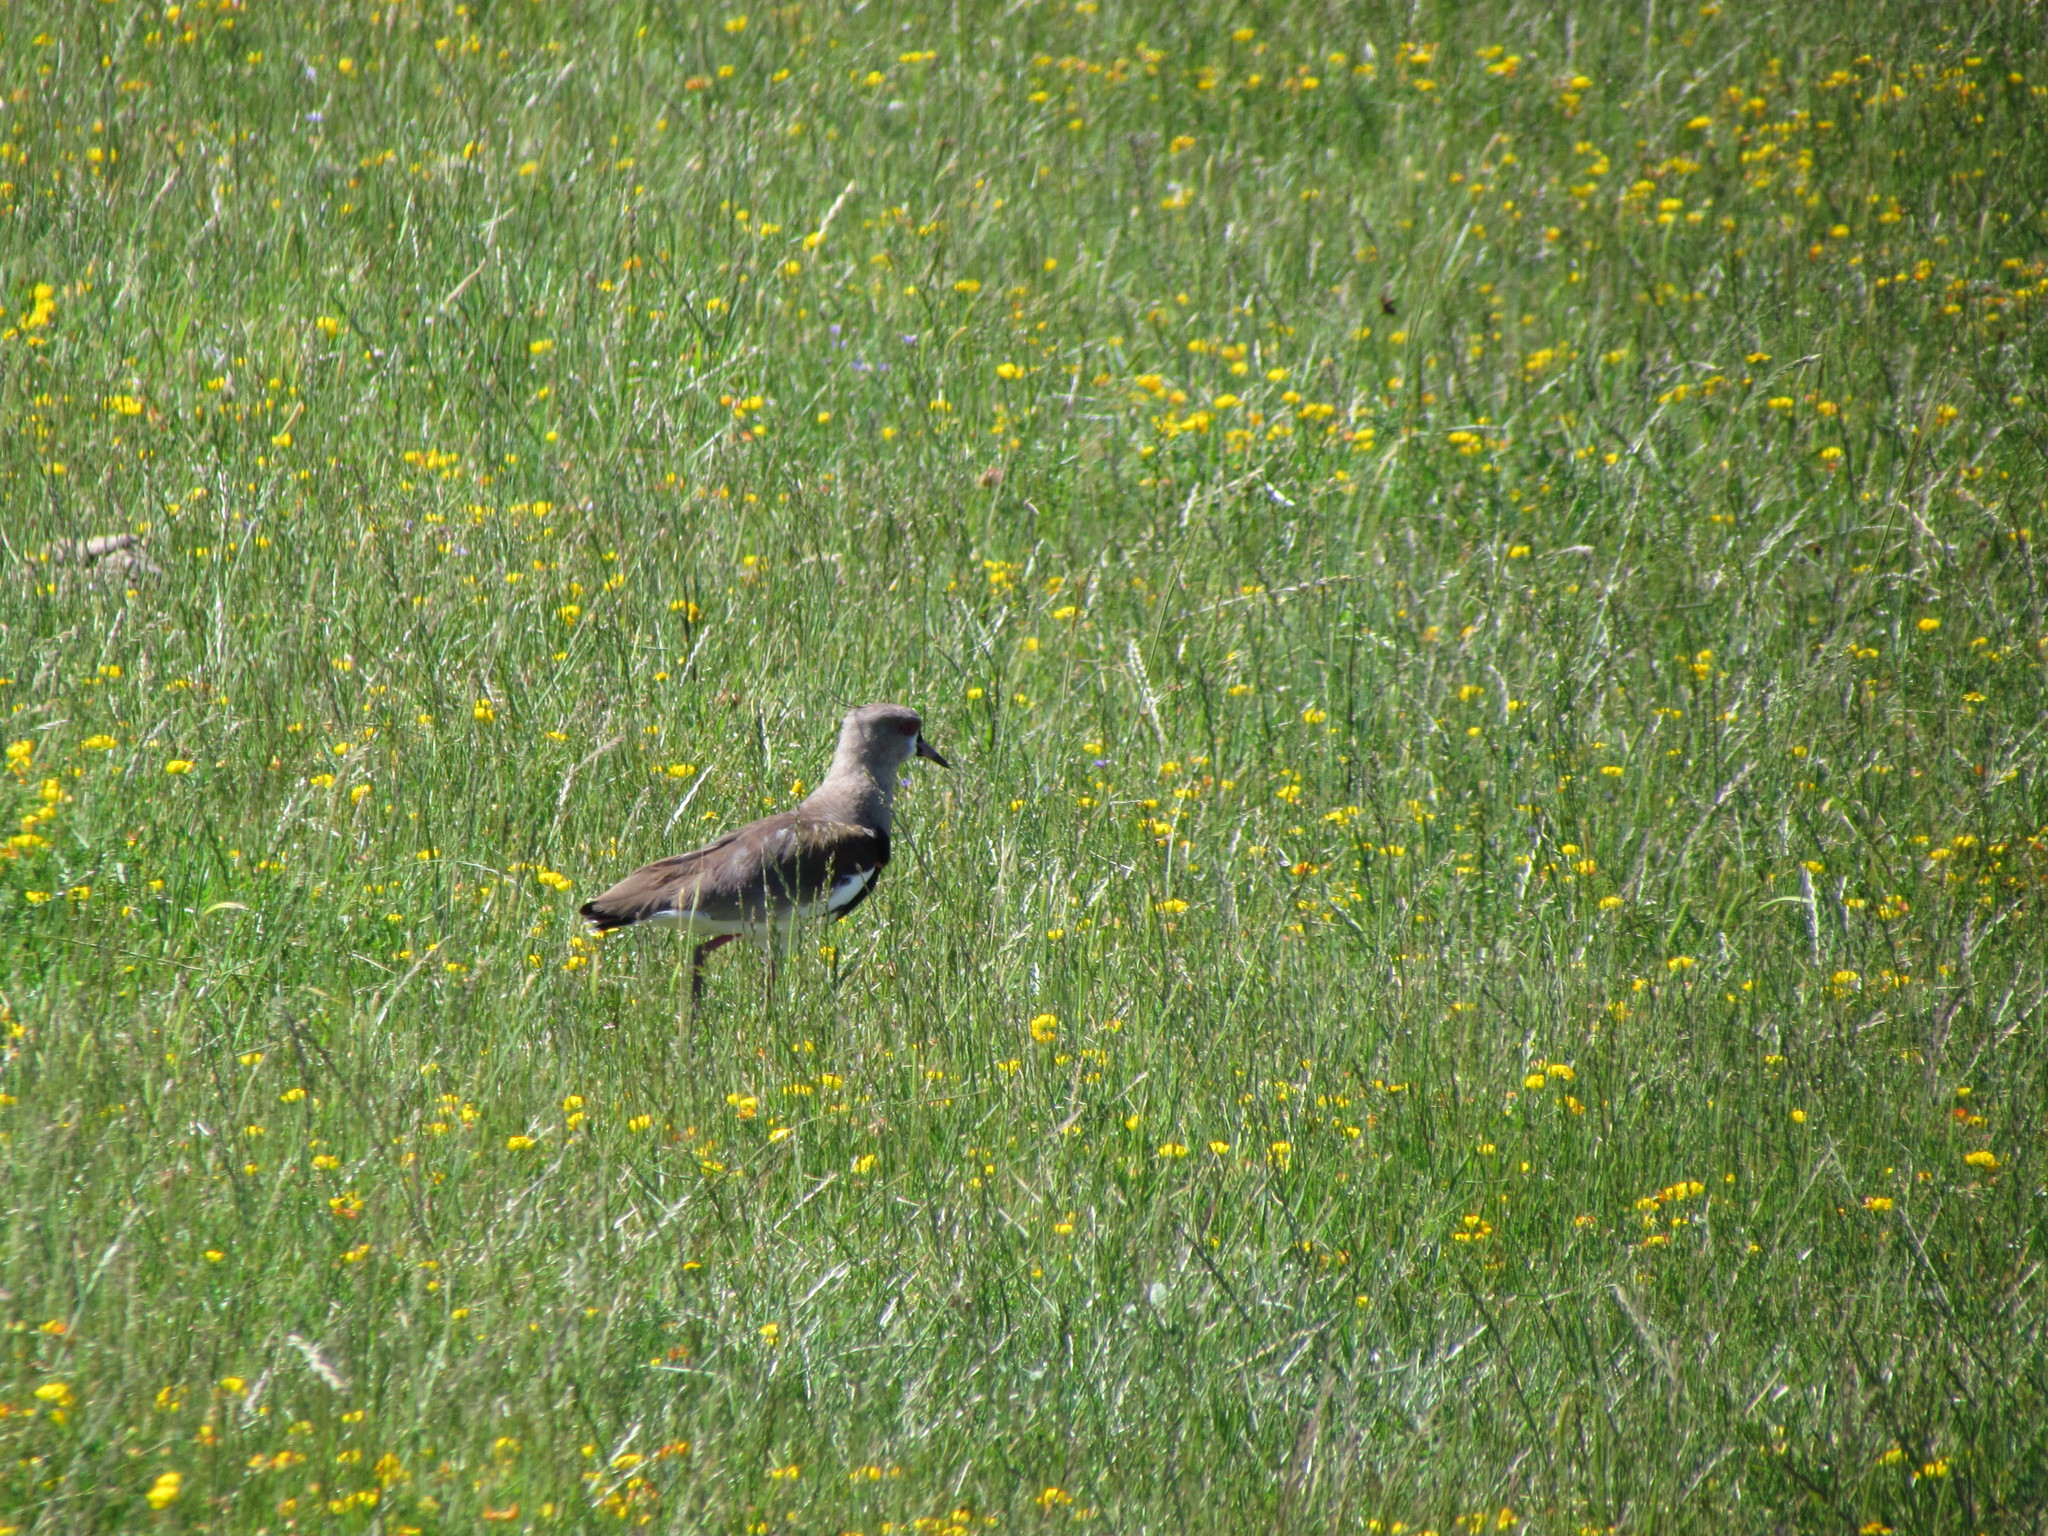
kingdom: Animalia
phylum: Chordata
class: Aves
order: Charadriiformes
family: Charadriidae
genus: Vanellus
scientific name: Vanellus chilensis
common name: Southern lapwing
